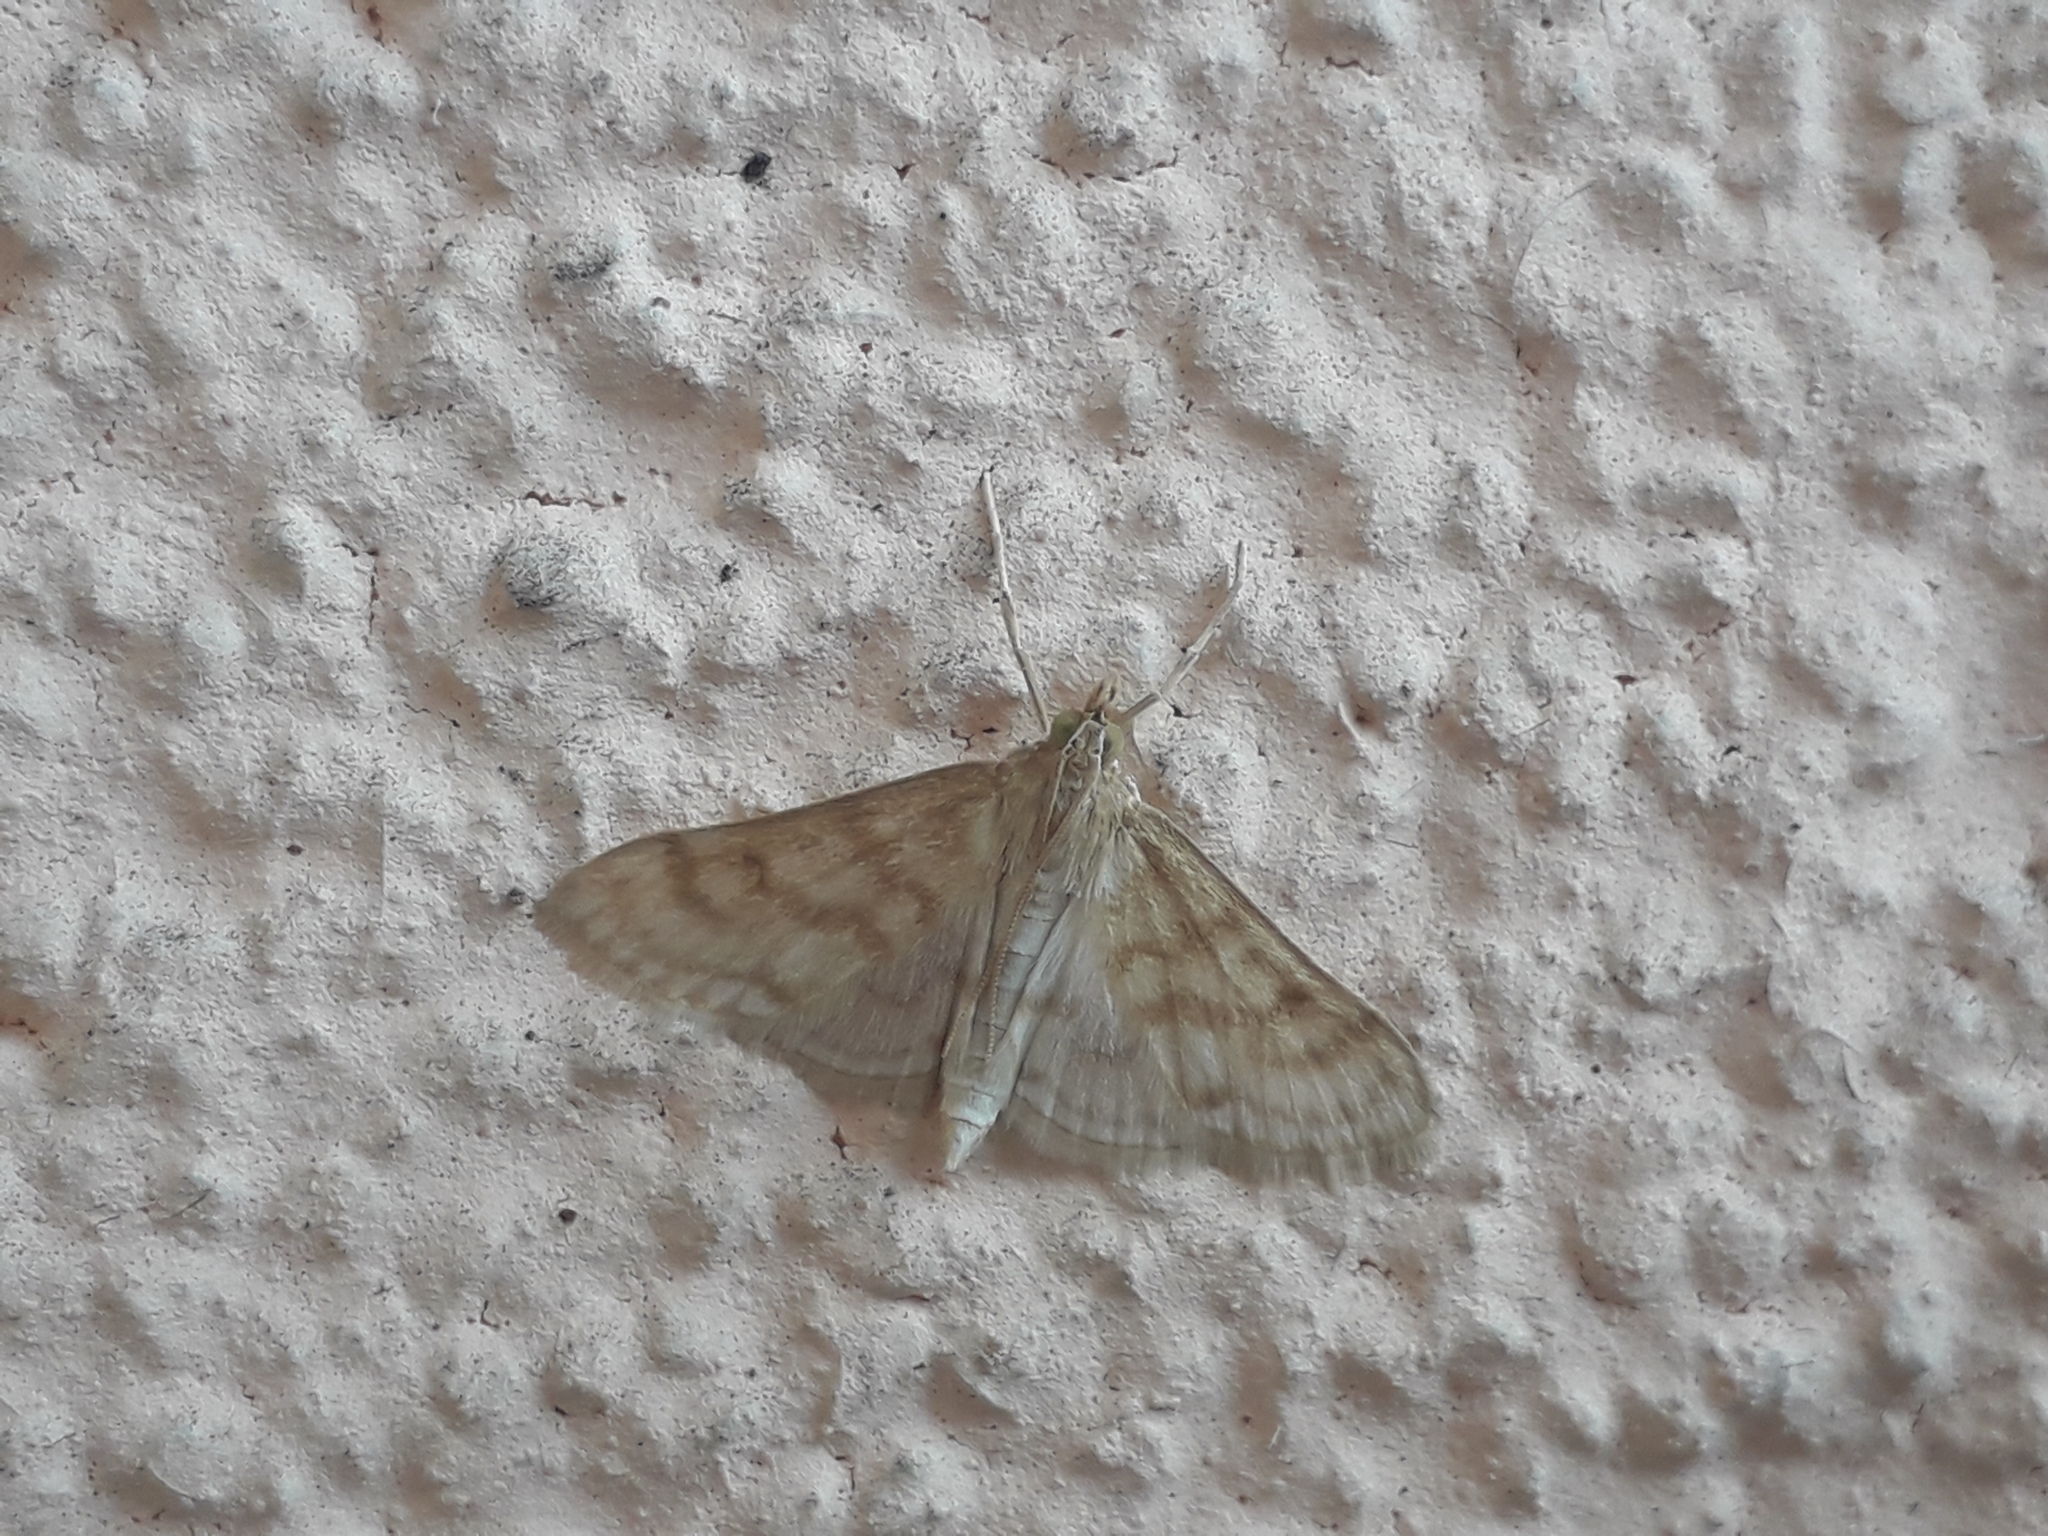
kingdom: Animalia
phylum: Arthropoda
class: Insecta
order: Lepidoptera
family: Crambidae
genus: Paracorsia
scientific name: Paracorsia repandalis
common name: Mullein moth
